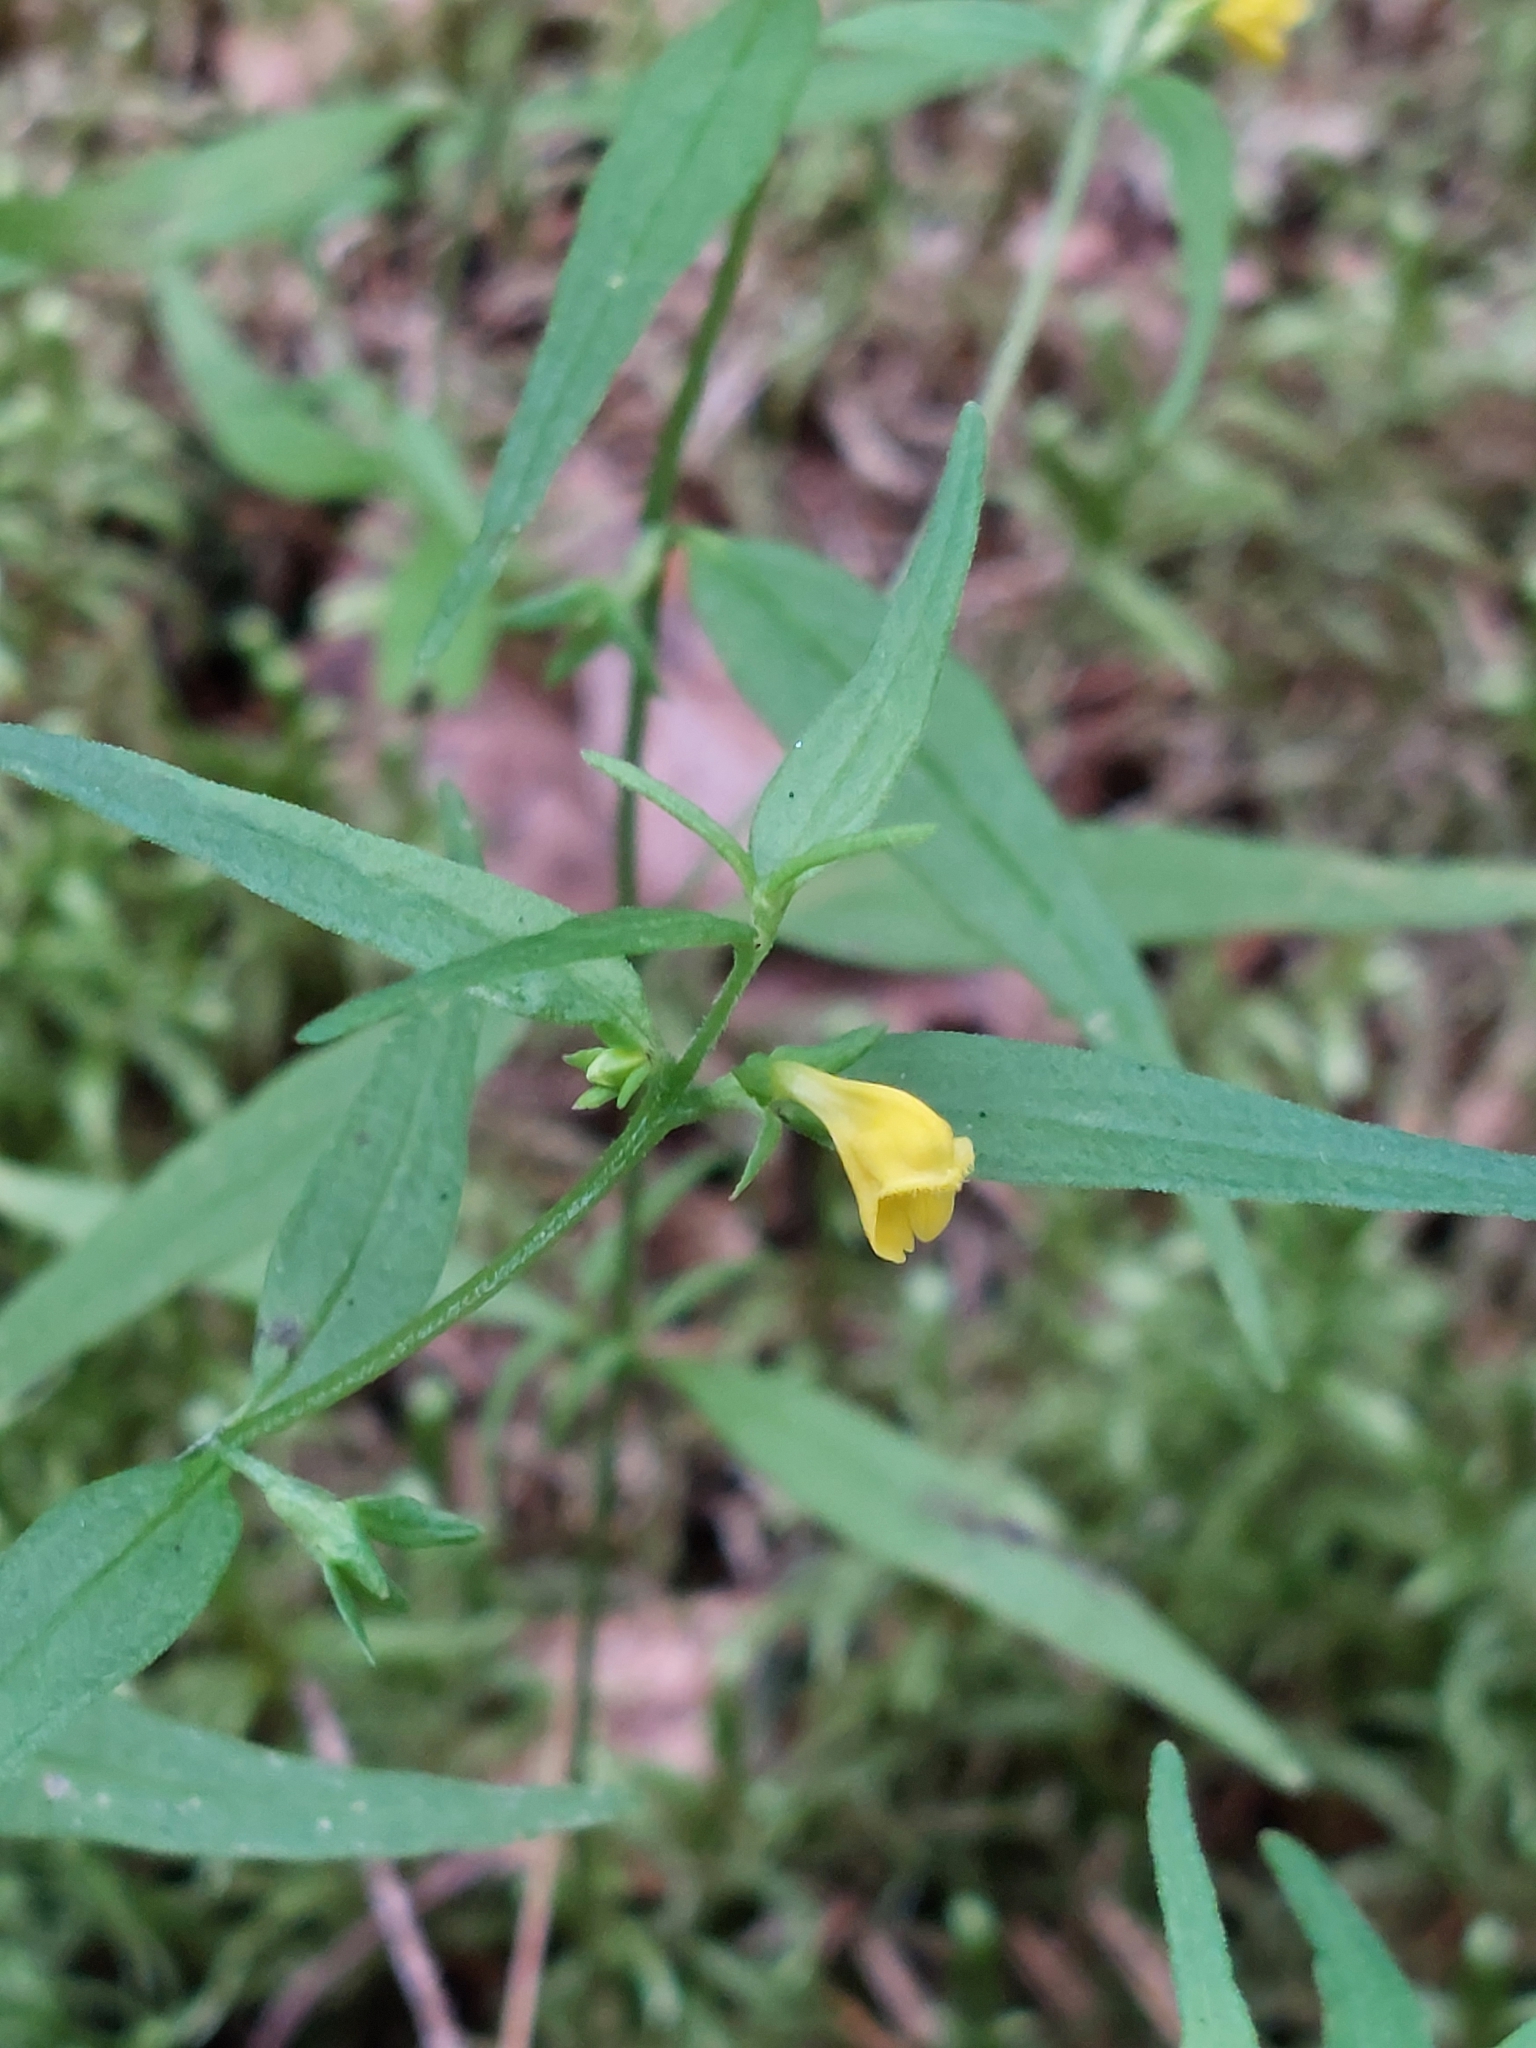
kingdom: Plantae
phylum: Tracheophyta
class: Magnoliopsida
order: Lamiales
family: Orobanchaceae
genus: Melampyrum
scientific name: Melampyrum sylvaticum
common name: Small cow-wheat
